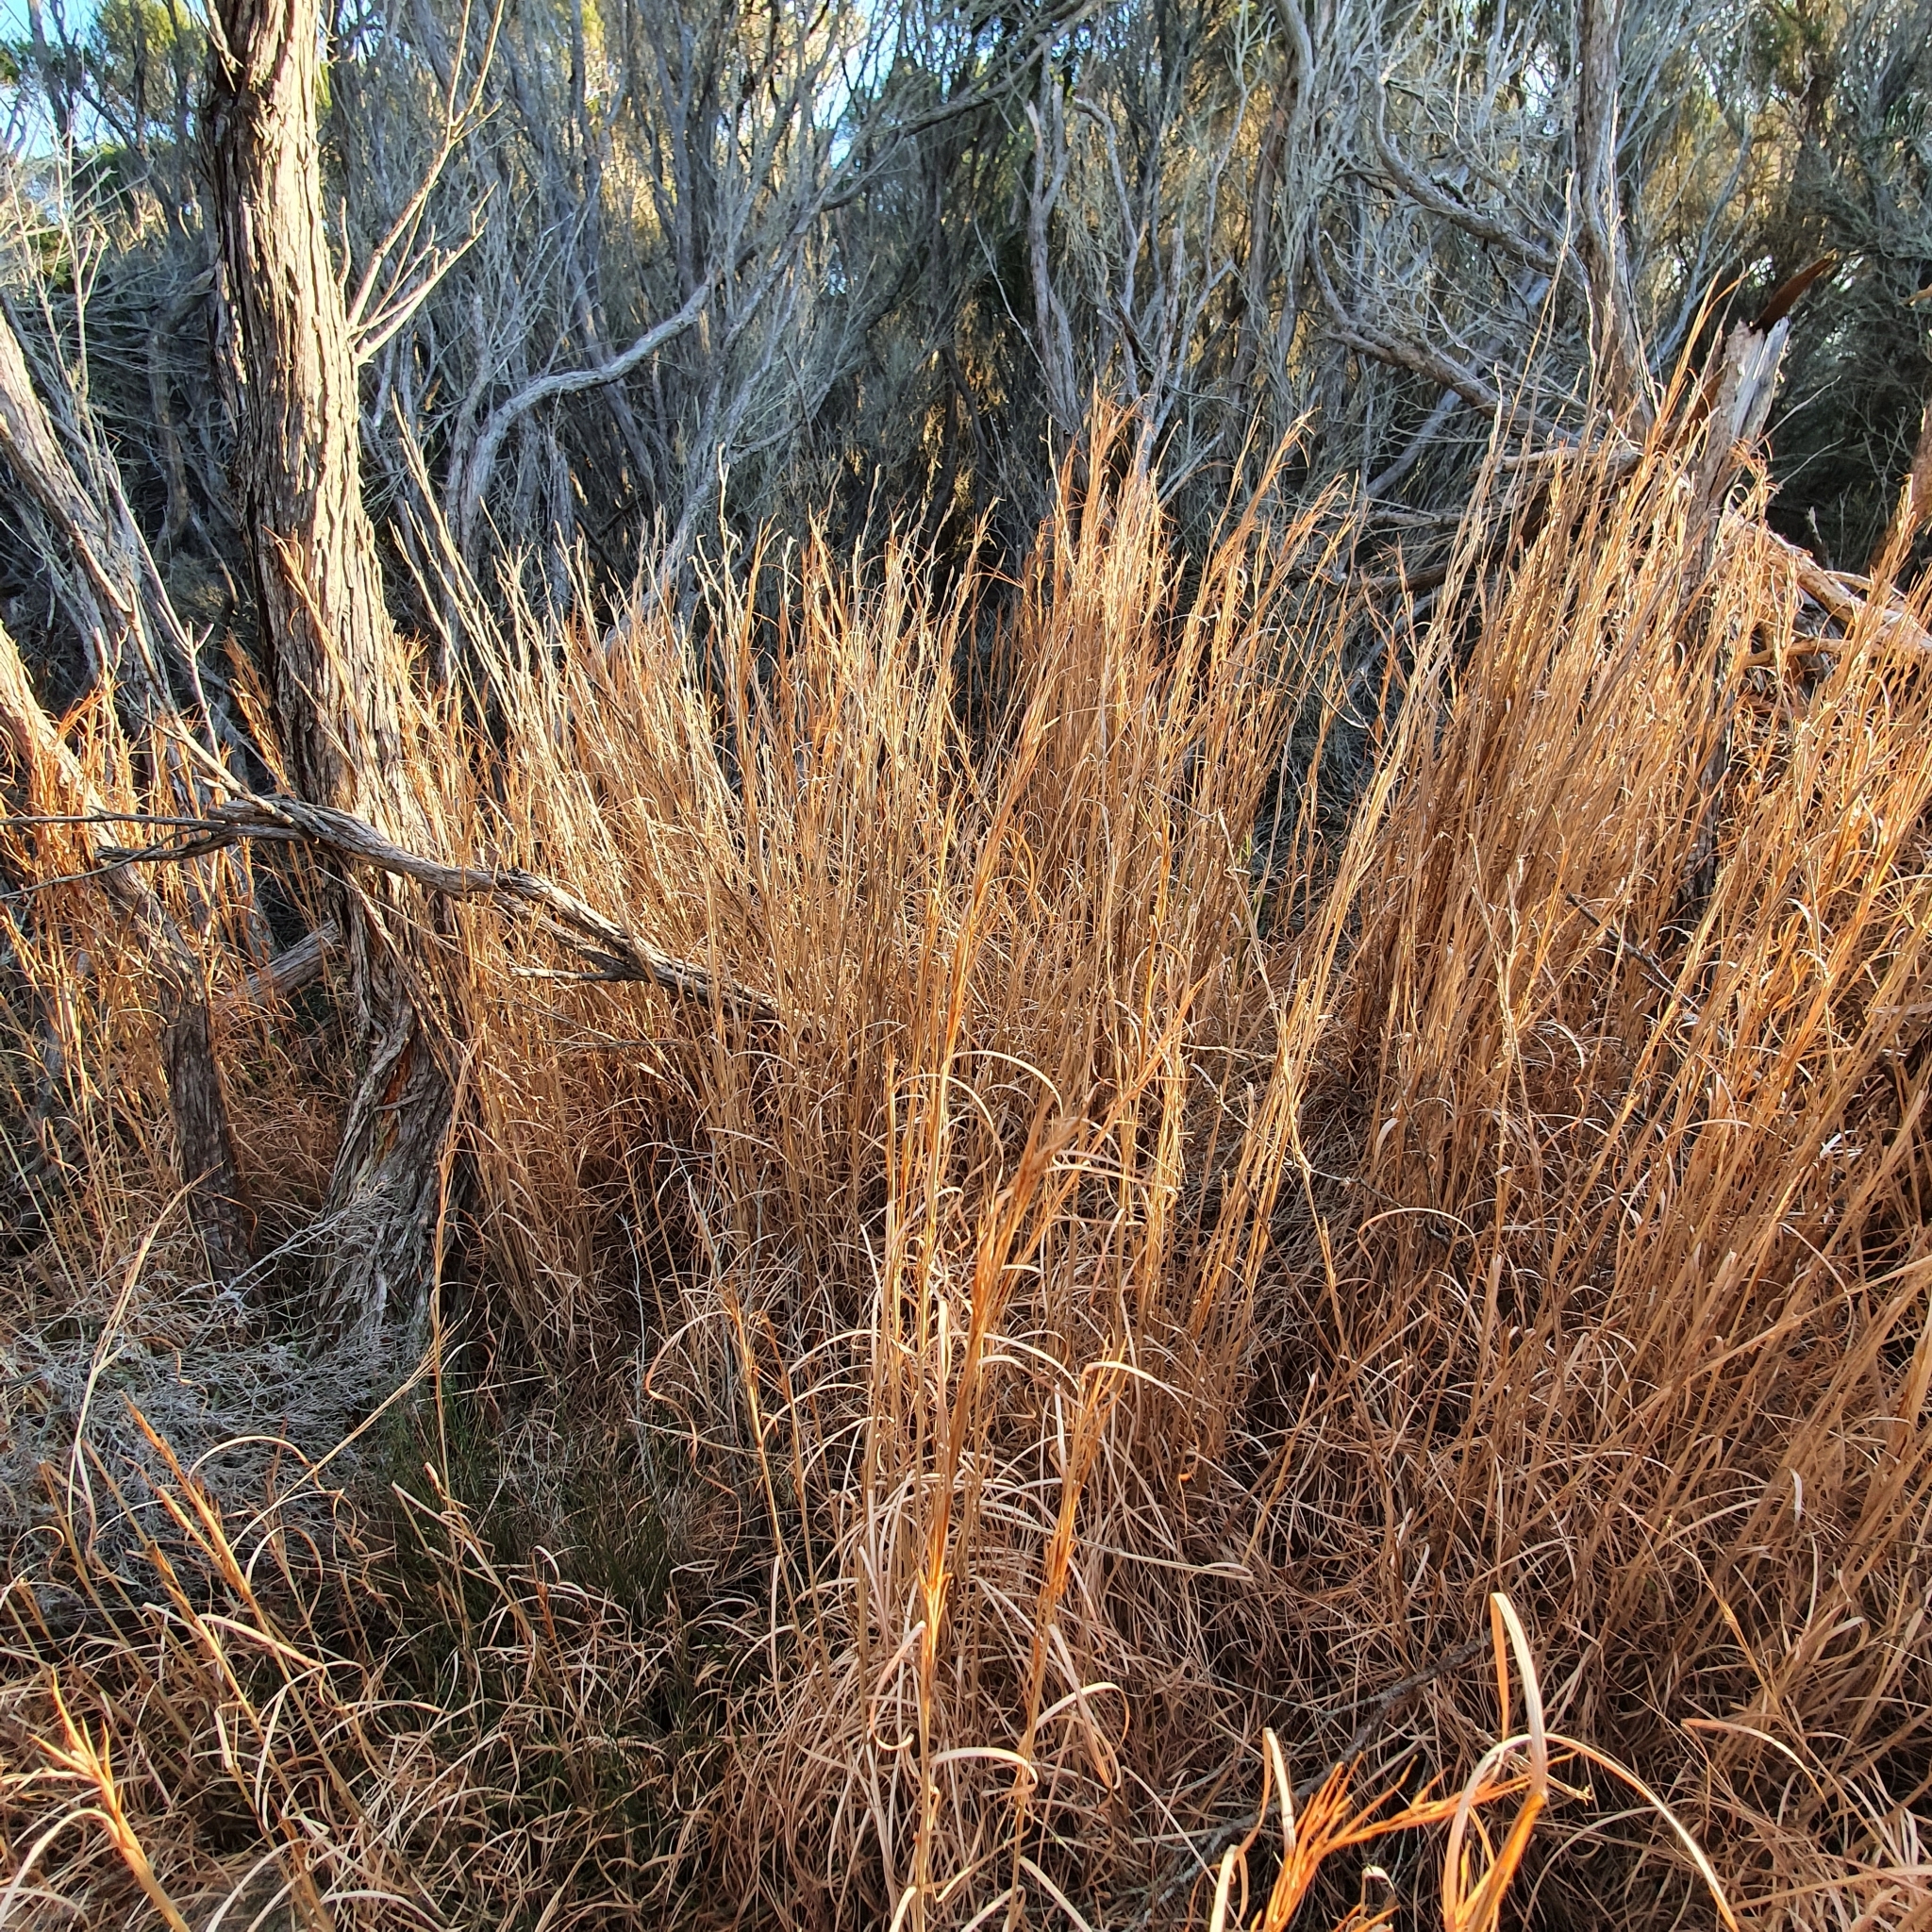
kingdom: Plantae
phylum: Tracheophyta
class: Liliopsida
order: Poales
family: Poaceae
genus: Andropogon
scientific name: Andropogon virginicus
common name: Broomsedge bluestem
